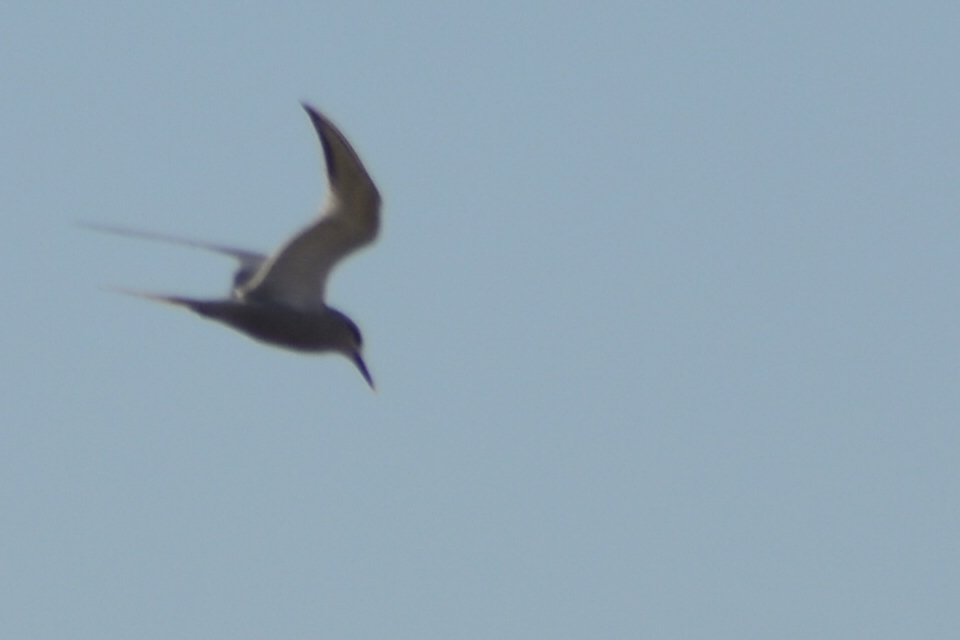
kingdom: Animalia
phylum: Chordata
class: Aves
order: Charadriiformes
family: Laridae
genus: Sterna
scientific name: Sterna hirundo
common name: Common tern
